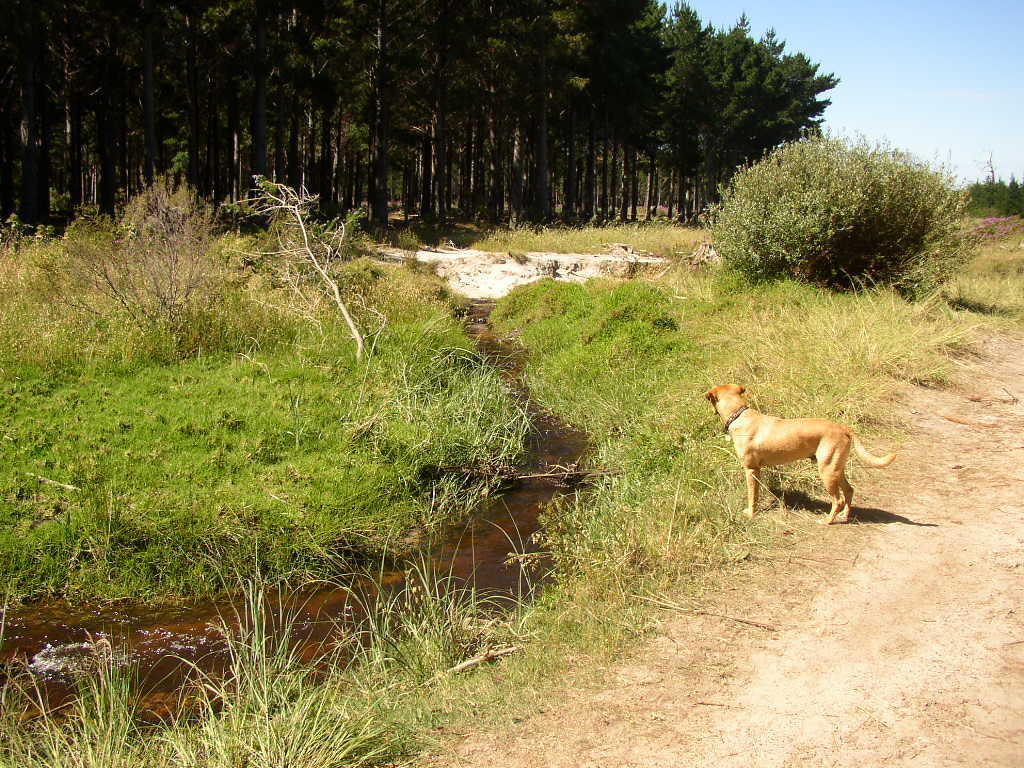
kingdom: Plantae
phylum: Tracheophyta
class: Liliopsida
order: Poales
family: Poaceae
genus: Cenchrus
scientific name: Cenchrus clandestinus
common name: Kikuyugrass
